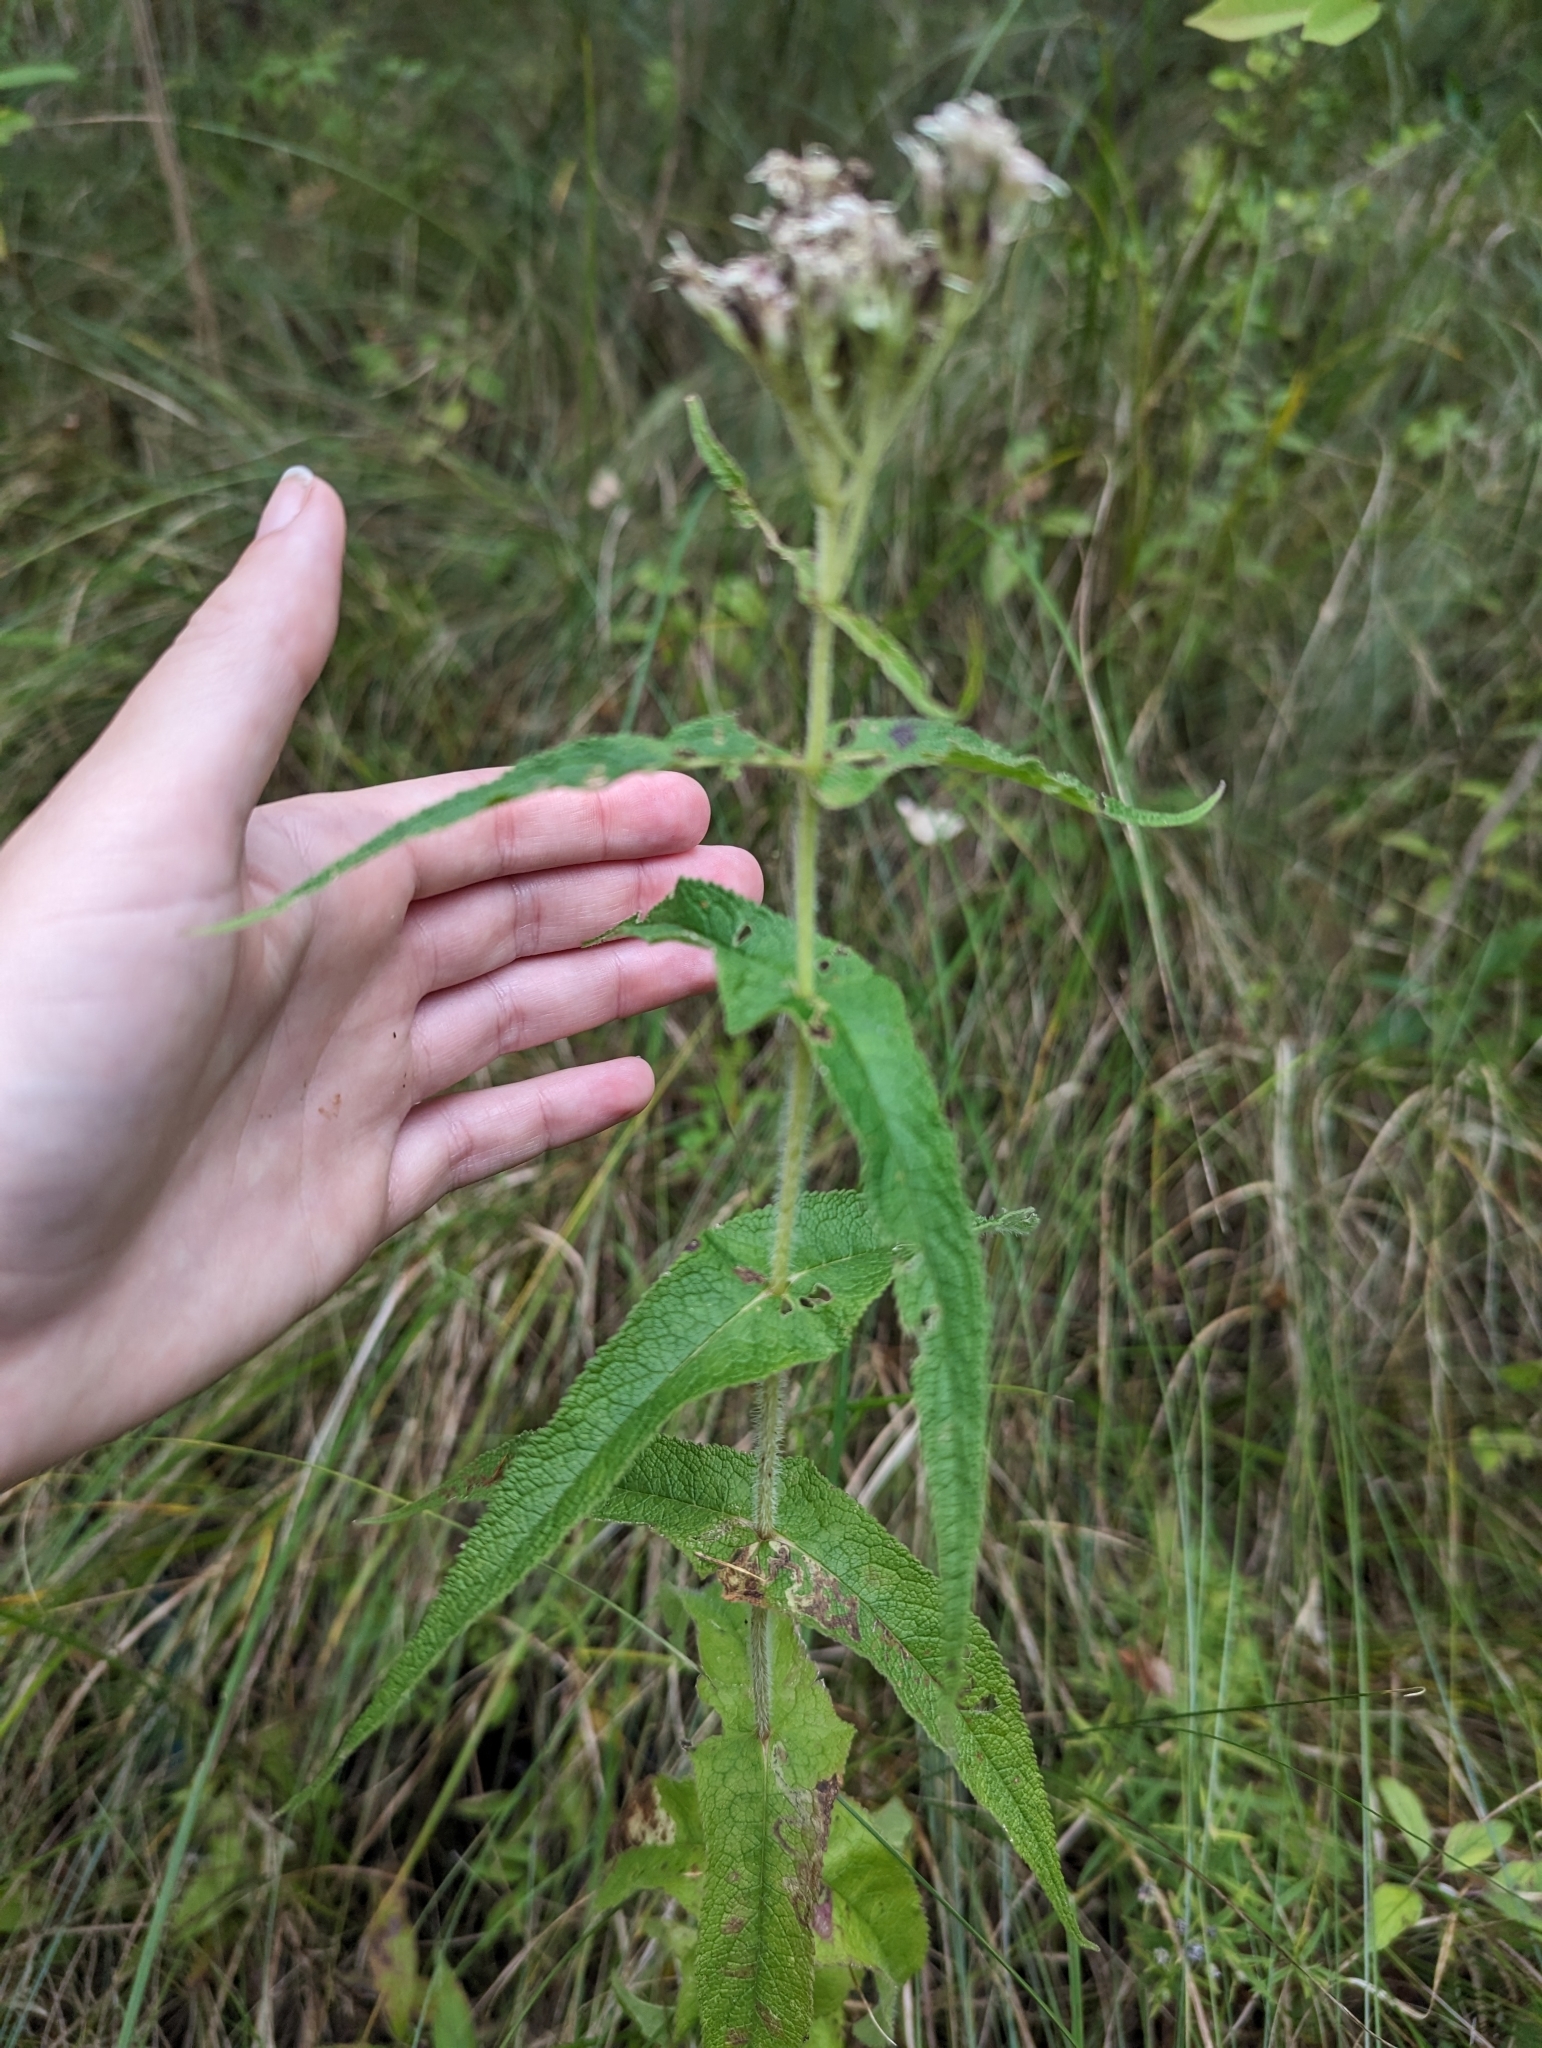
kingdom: Plantae
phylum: Tracheophyta
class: Magnoliopsida
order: Asterales
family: Asteraceae
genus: Eupatorium
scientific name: Eupatorium perfoliatum
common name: Boneset
